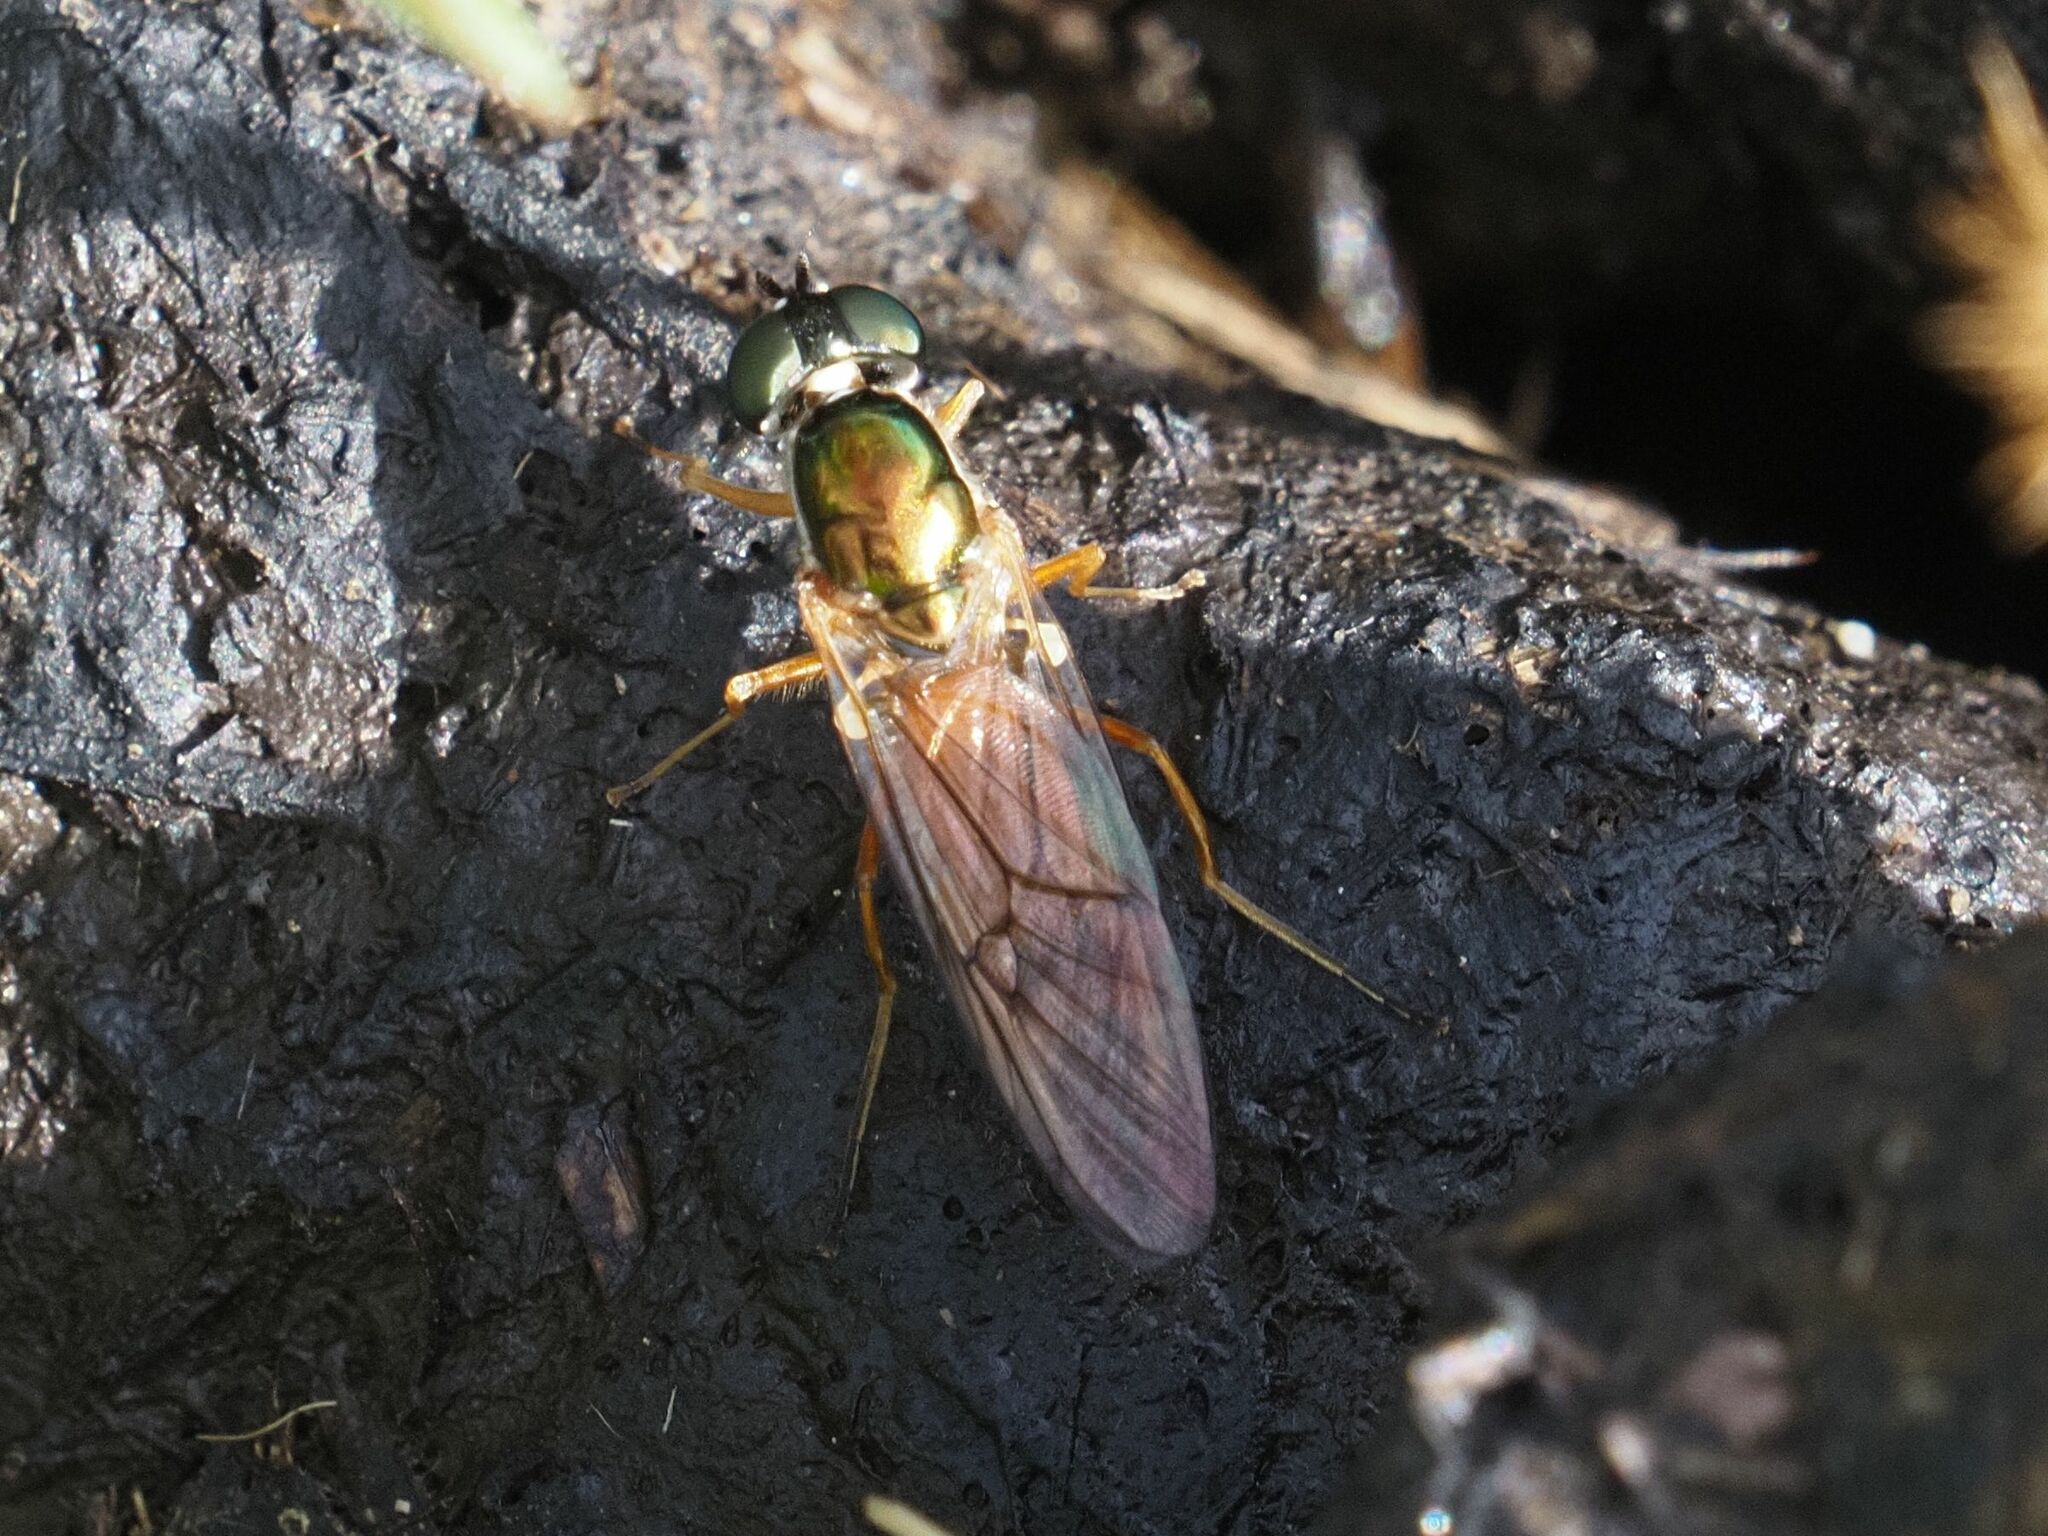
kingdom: Animalia
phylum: Arthropoda
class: Insecta
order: Diptera
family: Stratiomyidae
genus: Sargus
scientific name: Sargus bipunctatus
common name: Twin-spot centurion
